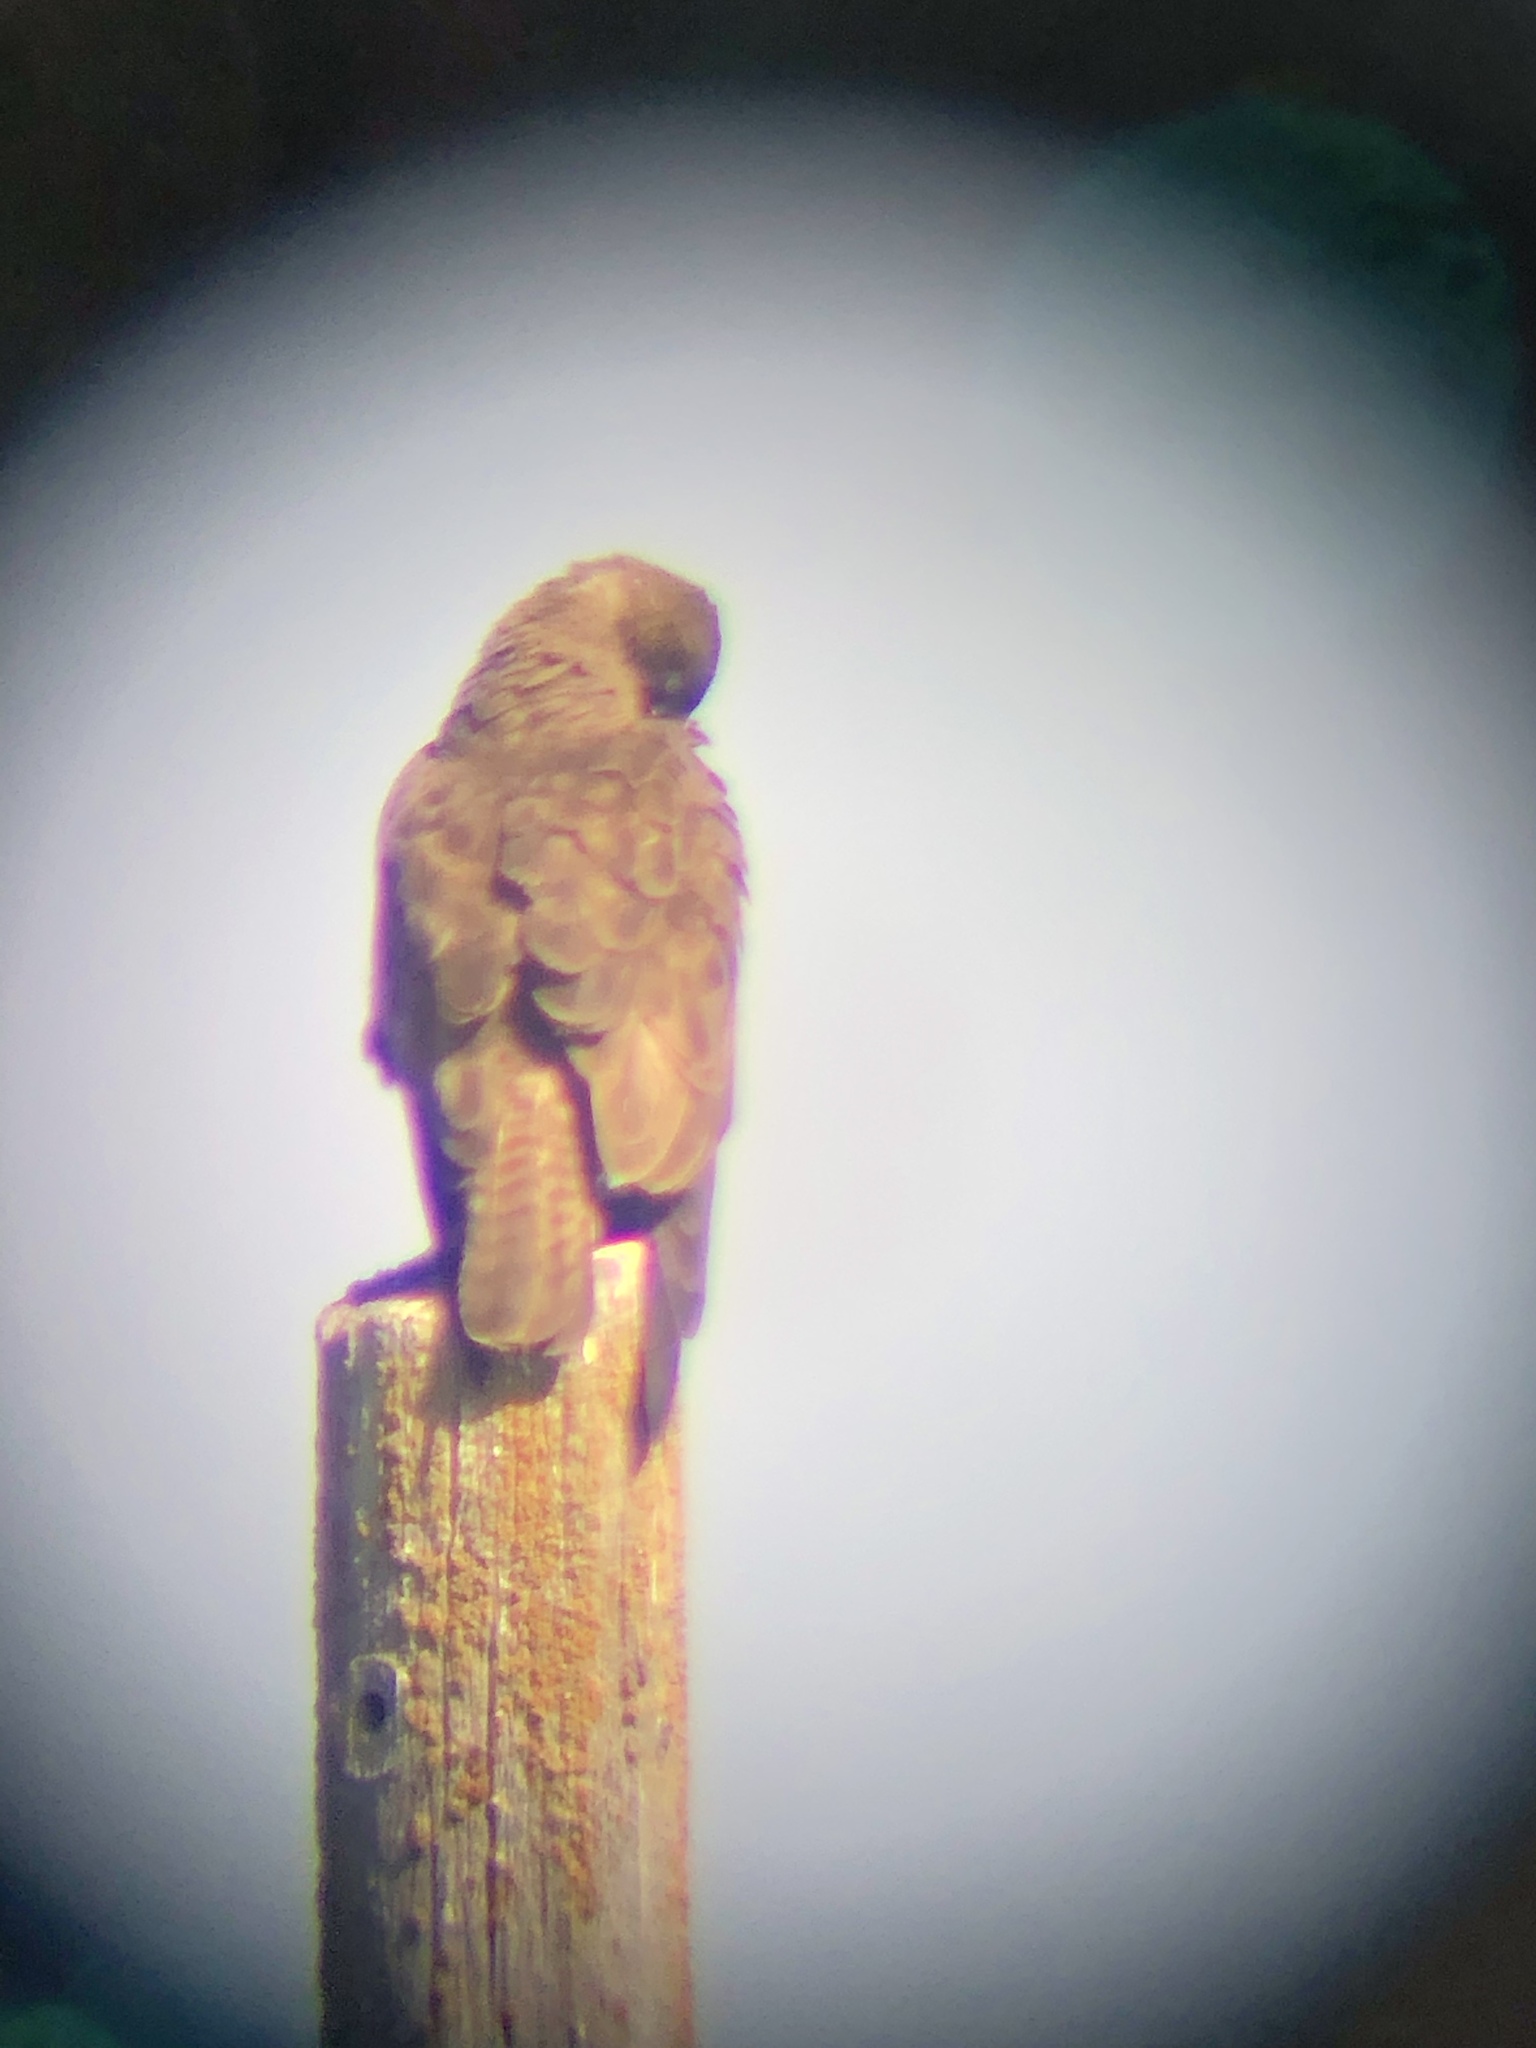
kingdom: Animalia
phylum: Chordata
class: Aves
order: Accipitriformes
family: Accipitridae
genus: Buteo
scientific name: Buteo swainsoni
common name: Swainson's hawk
